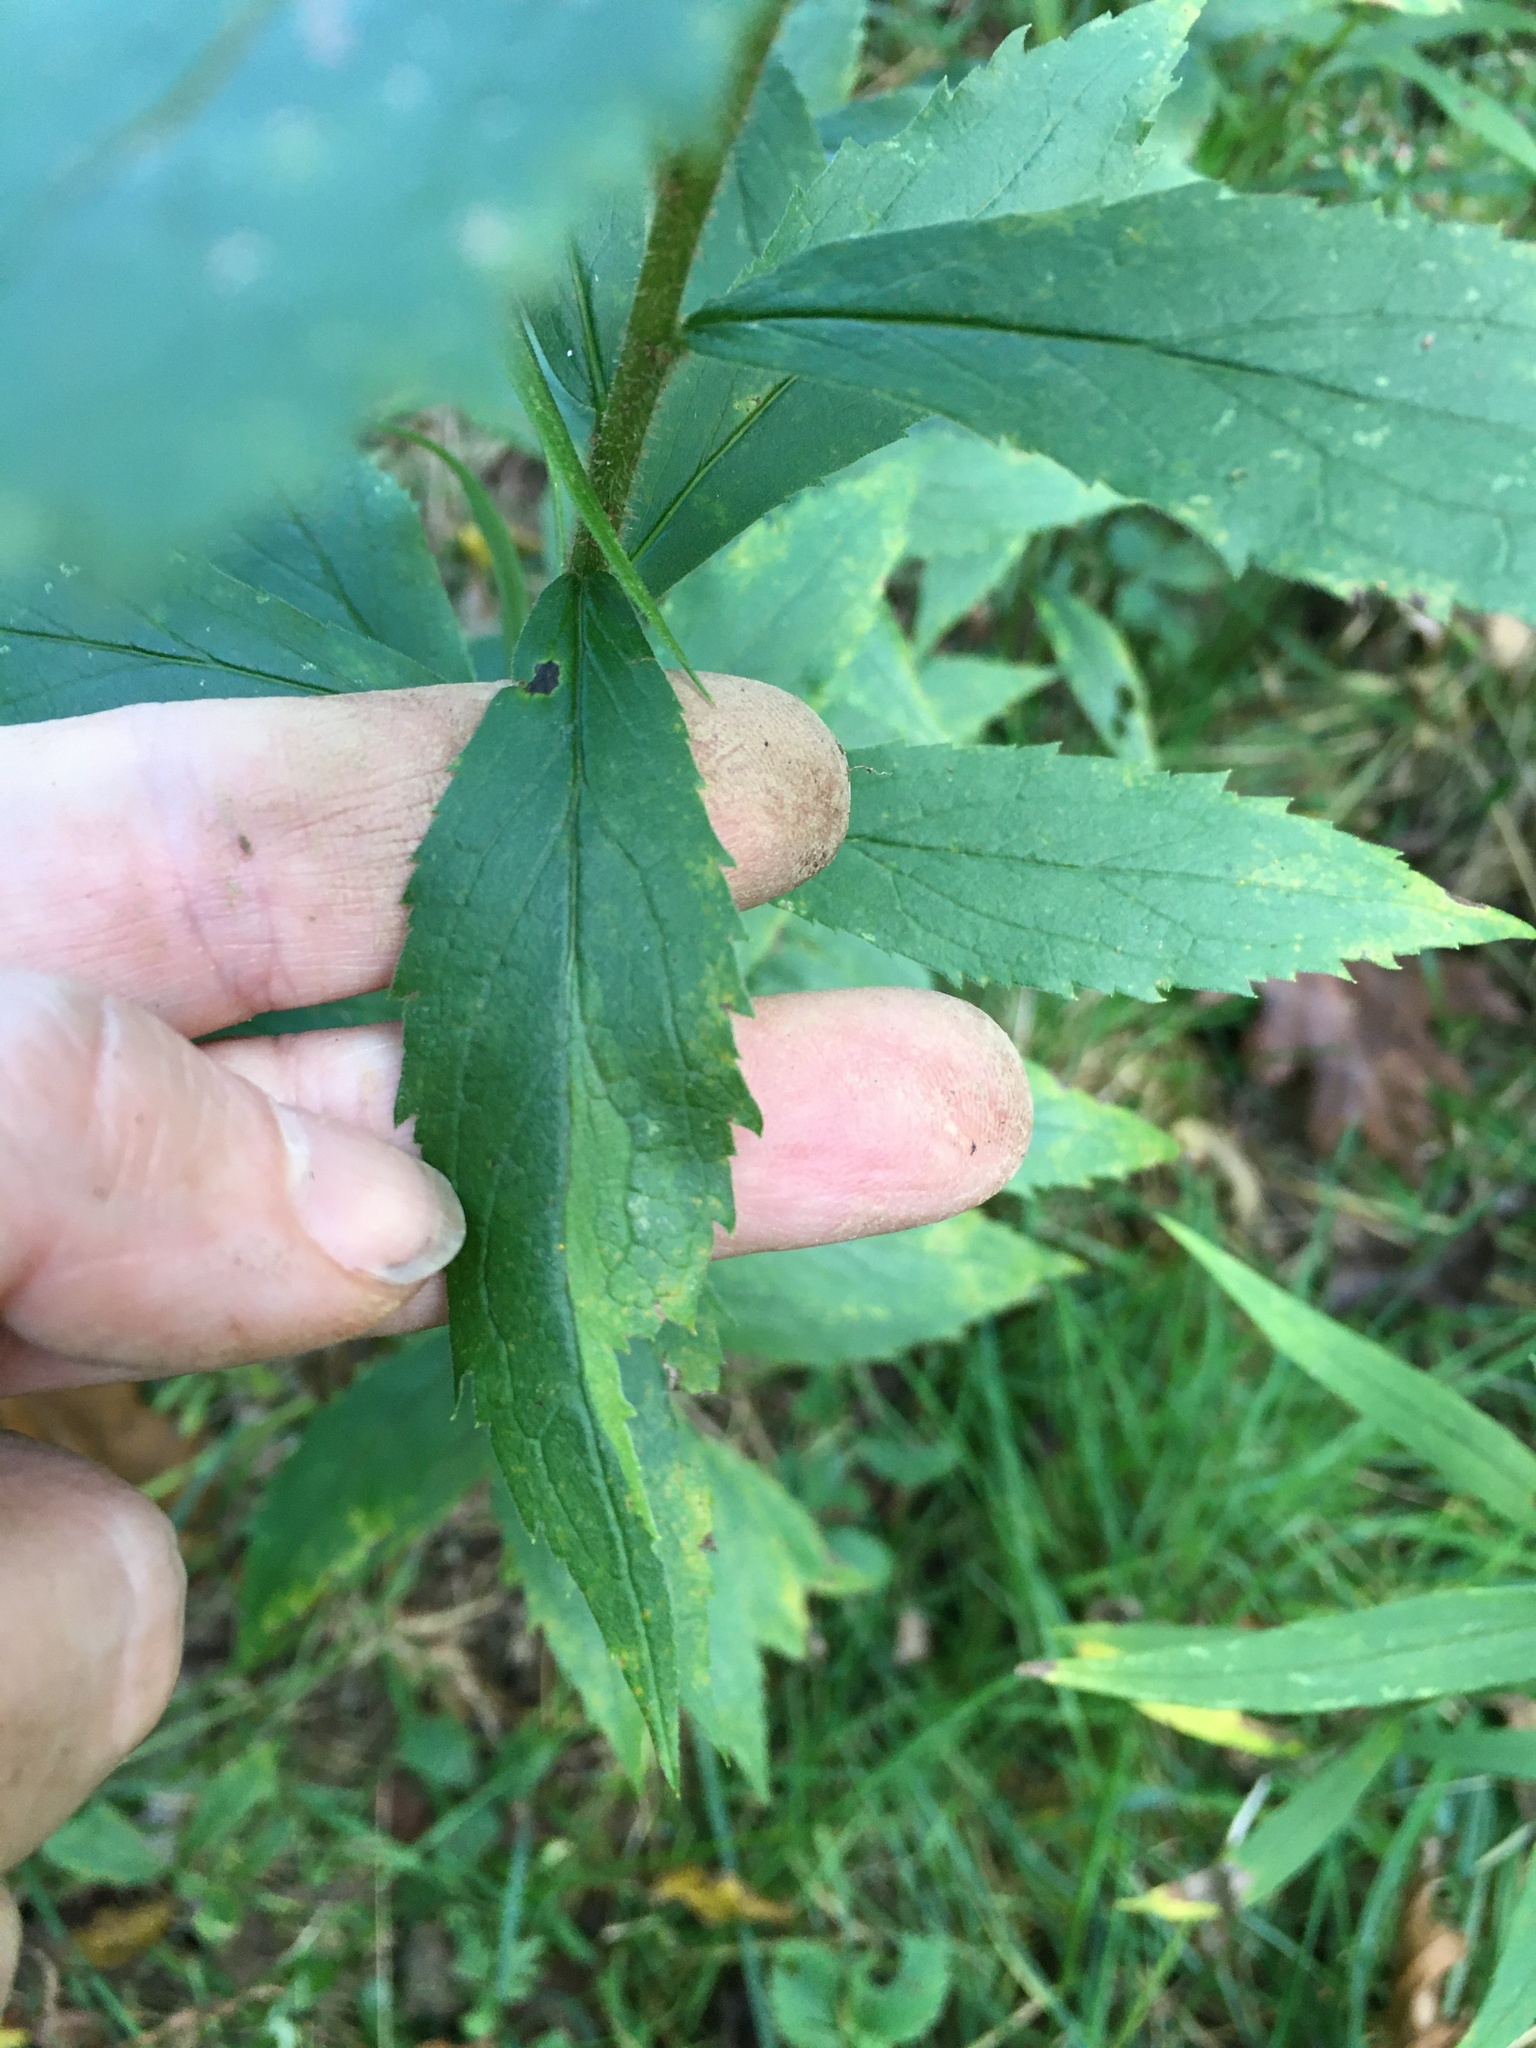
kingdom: Plantae
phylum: Tracheophyta
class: Magnoliopsida
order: Asterales
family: Asteraceae
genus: Solidago
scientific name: Solidago rugosa
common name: Rough-stemmed goldenrod
